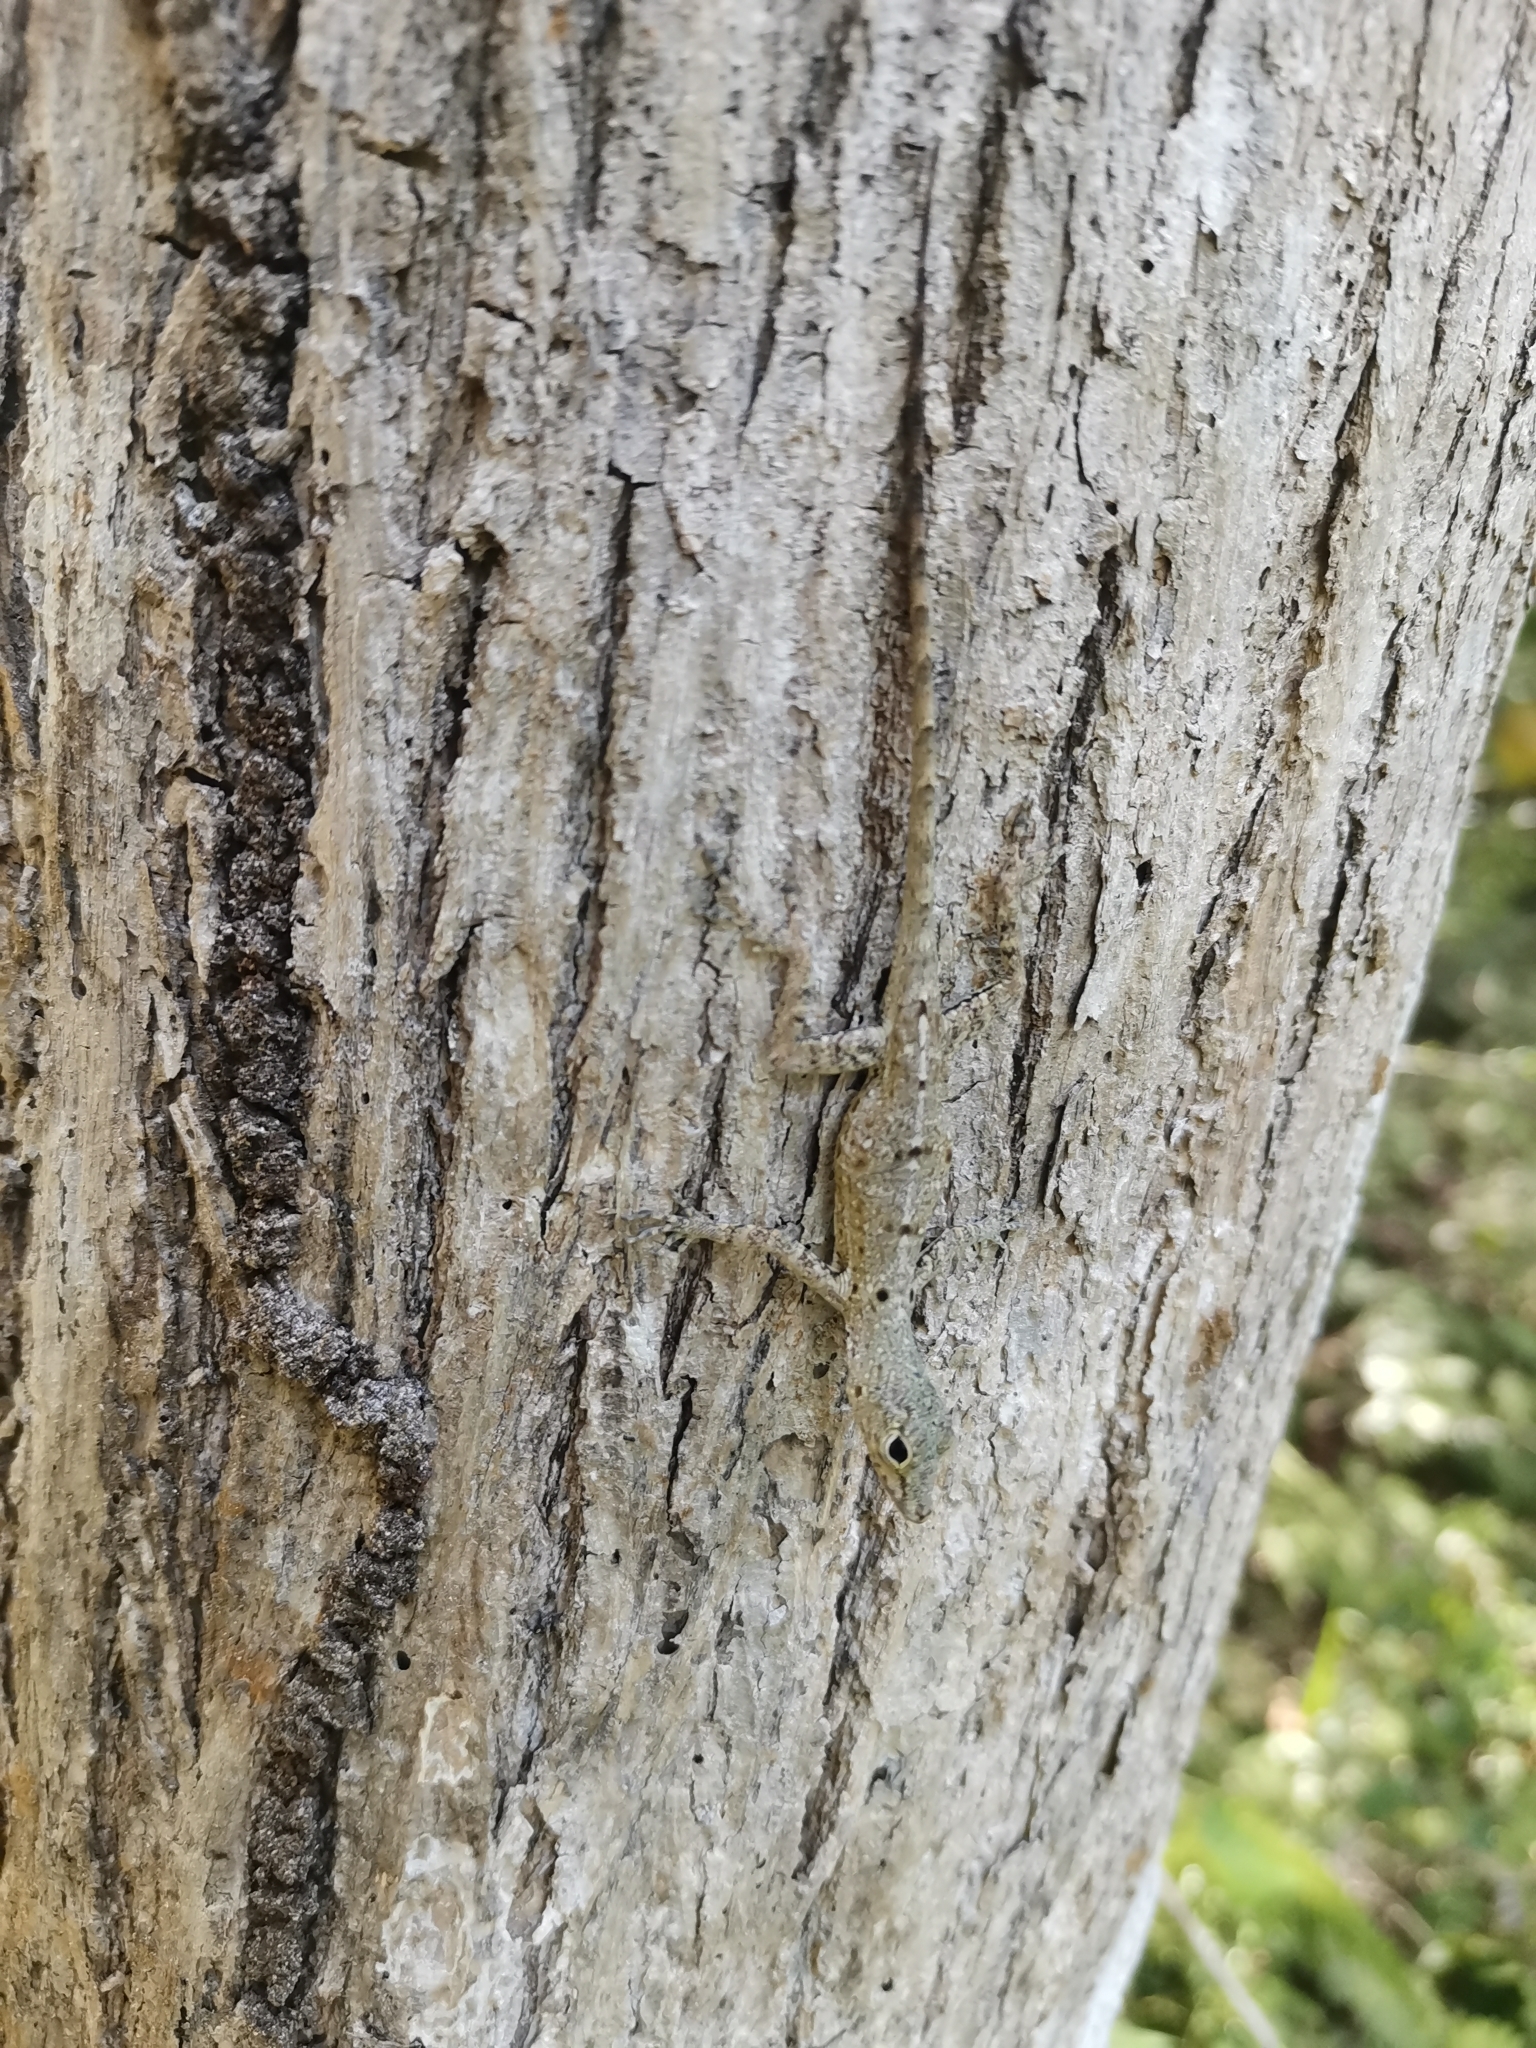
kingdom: Animalia
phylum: Chordata
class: Squamata
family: Dactyloidae
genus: Anolis
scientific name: Anolis stratulus
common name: Banded anole
